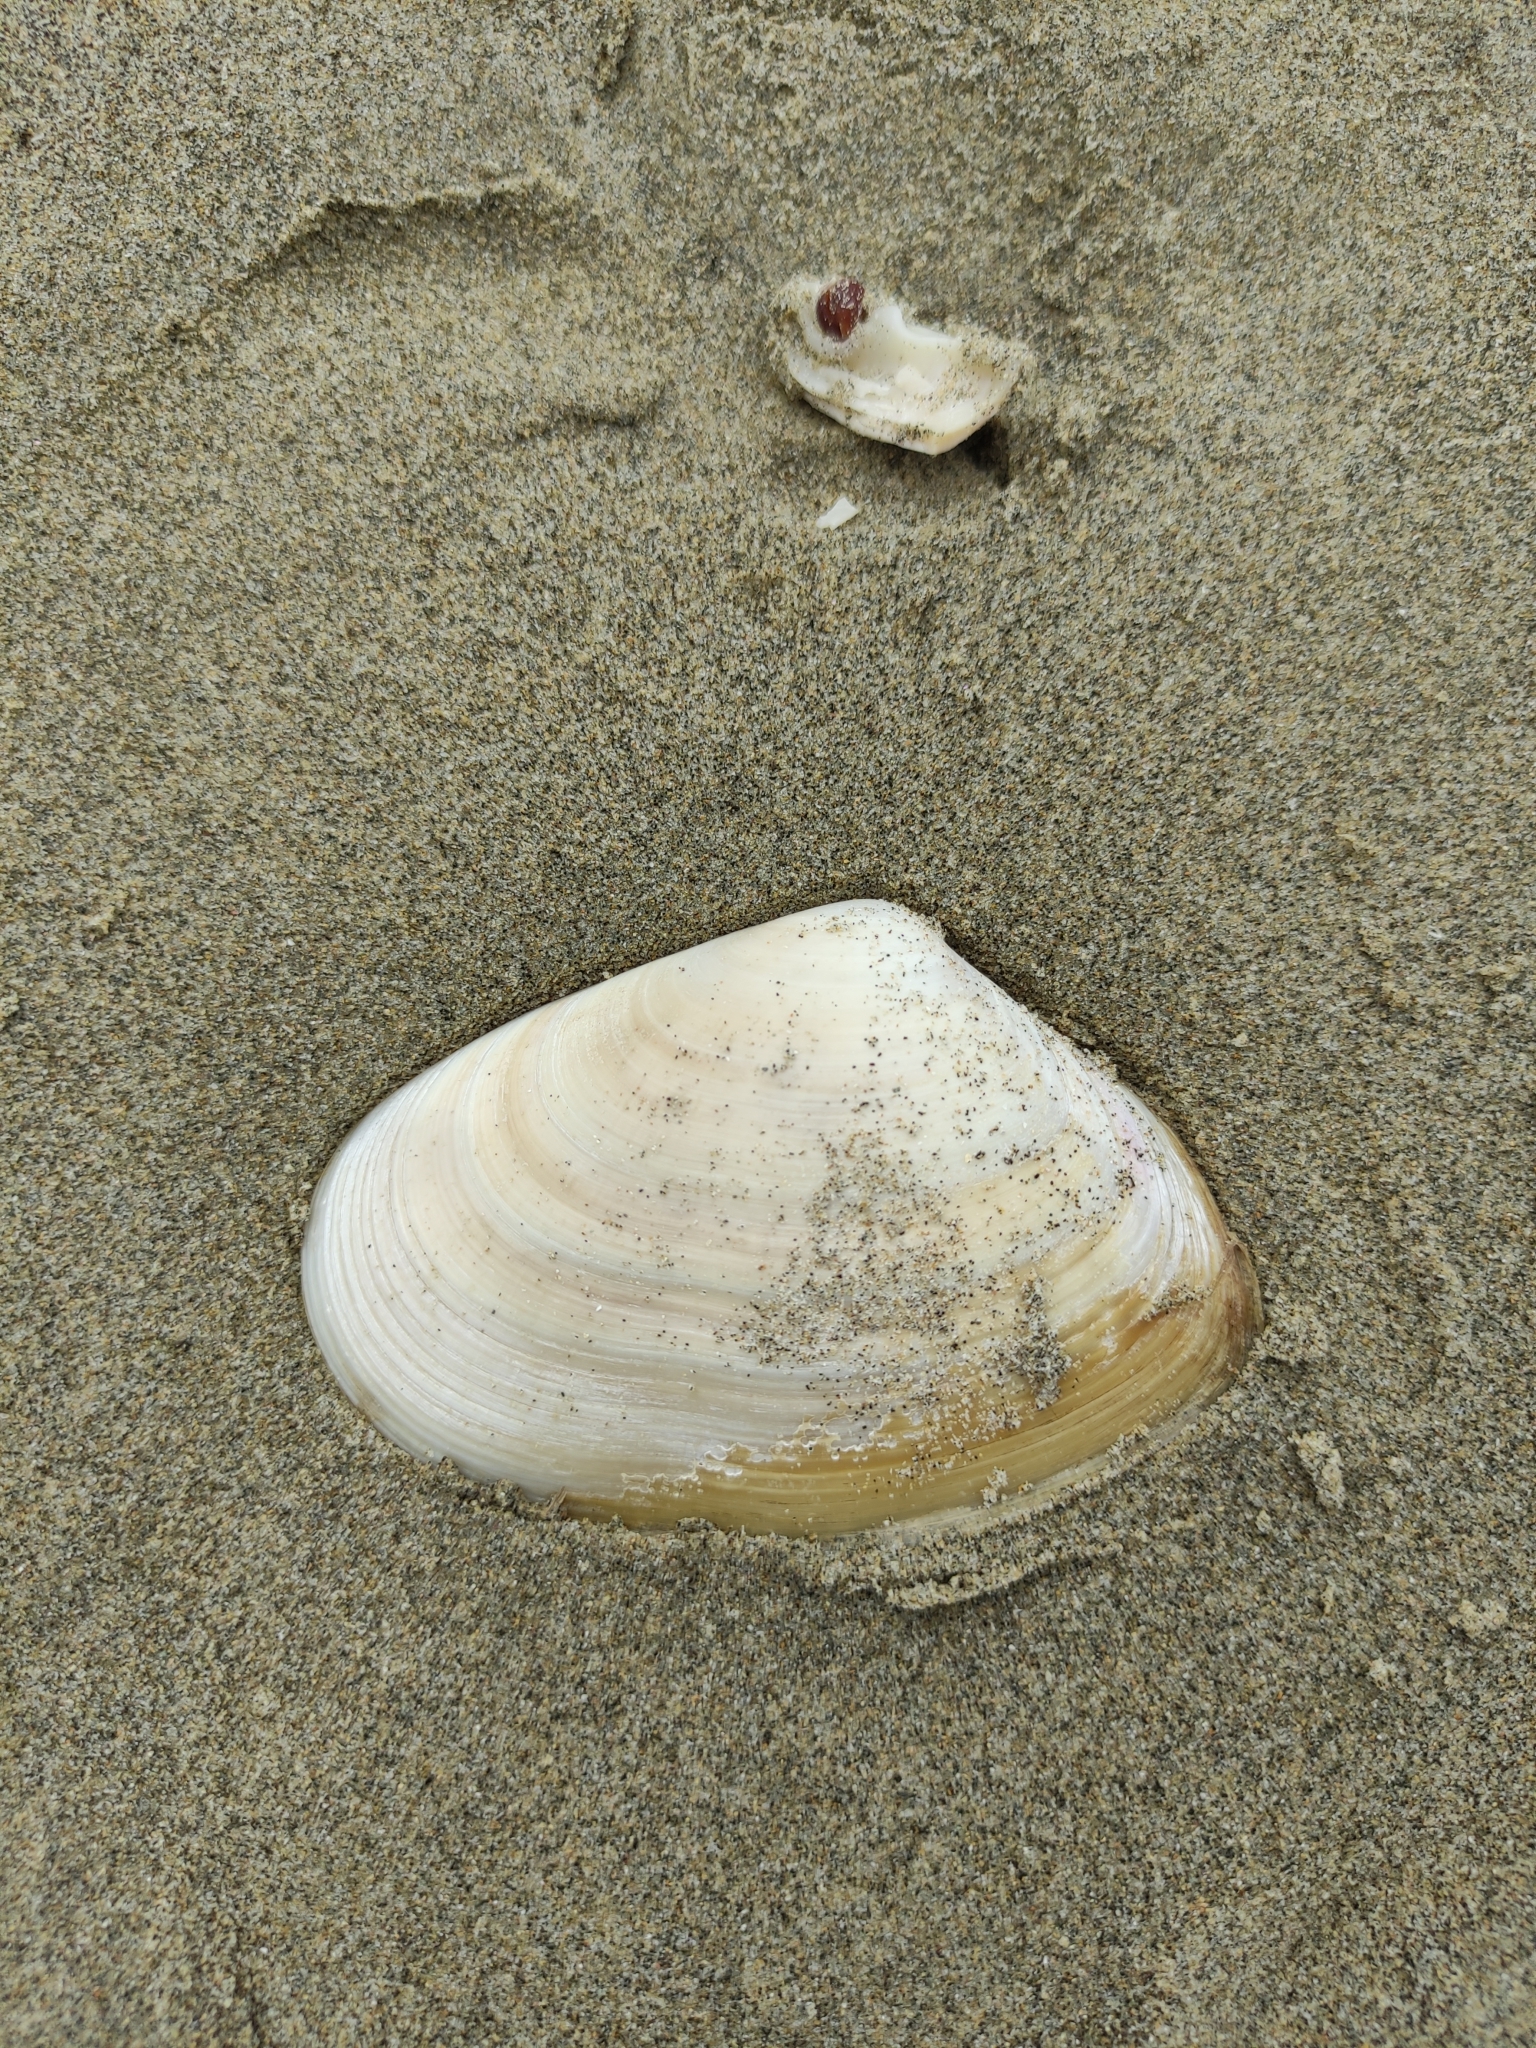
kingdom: Animalia
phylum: Mollusca
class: Bivalvia
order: Venerida
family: Mesodesmatidae
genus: Paphies
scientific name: Paphies donacina
